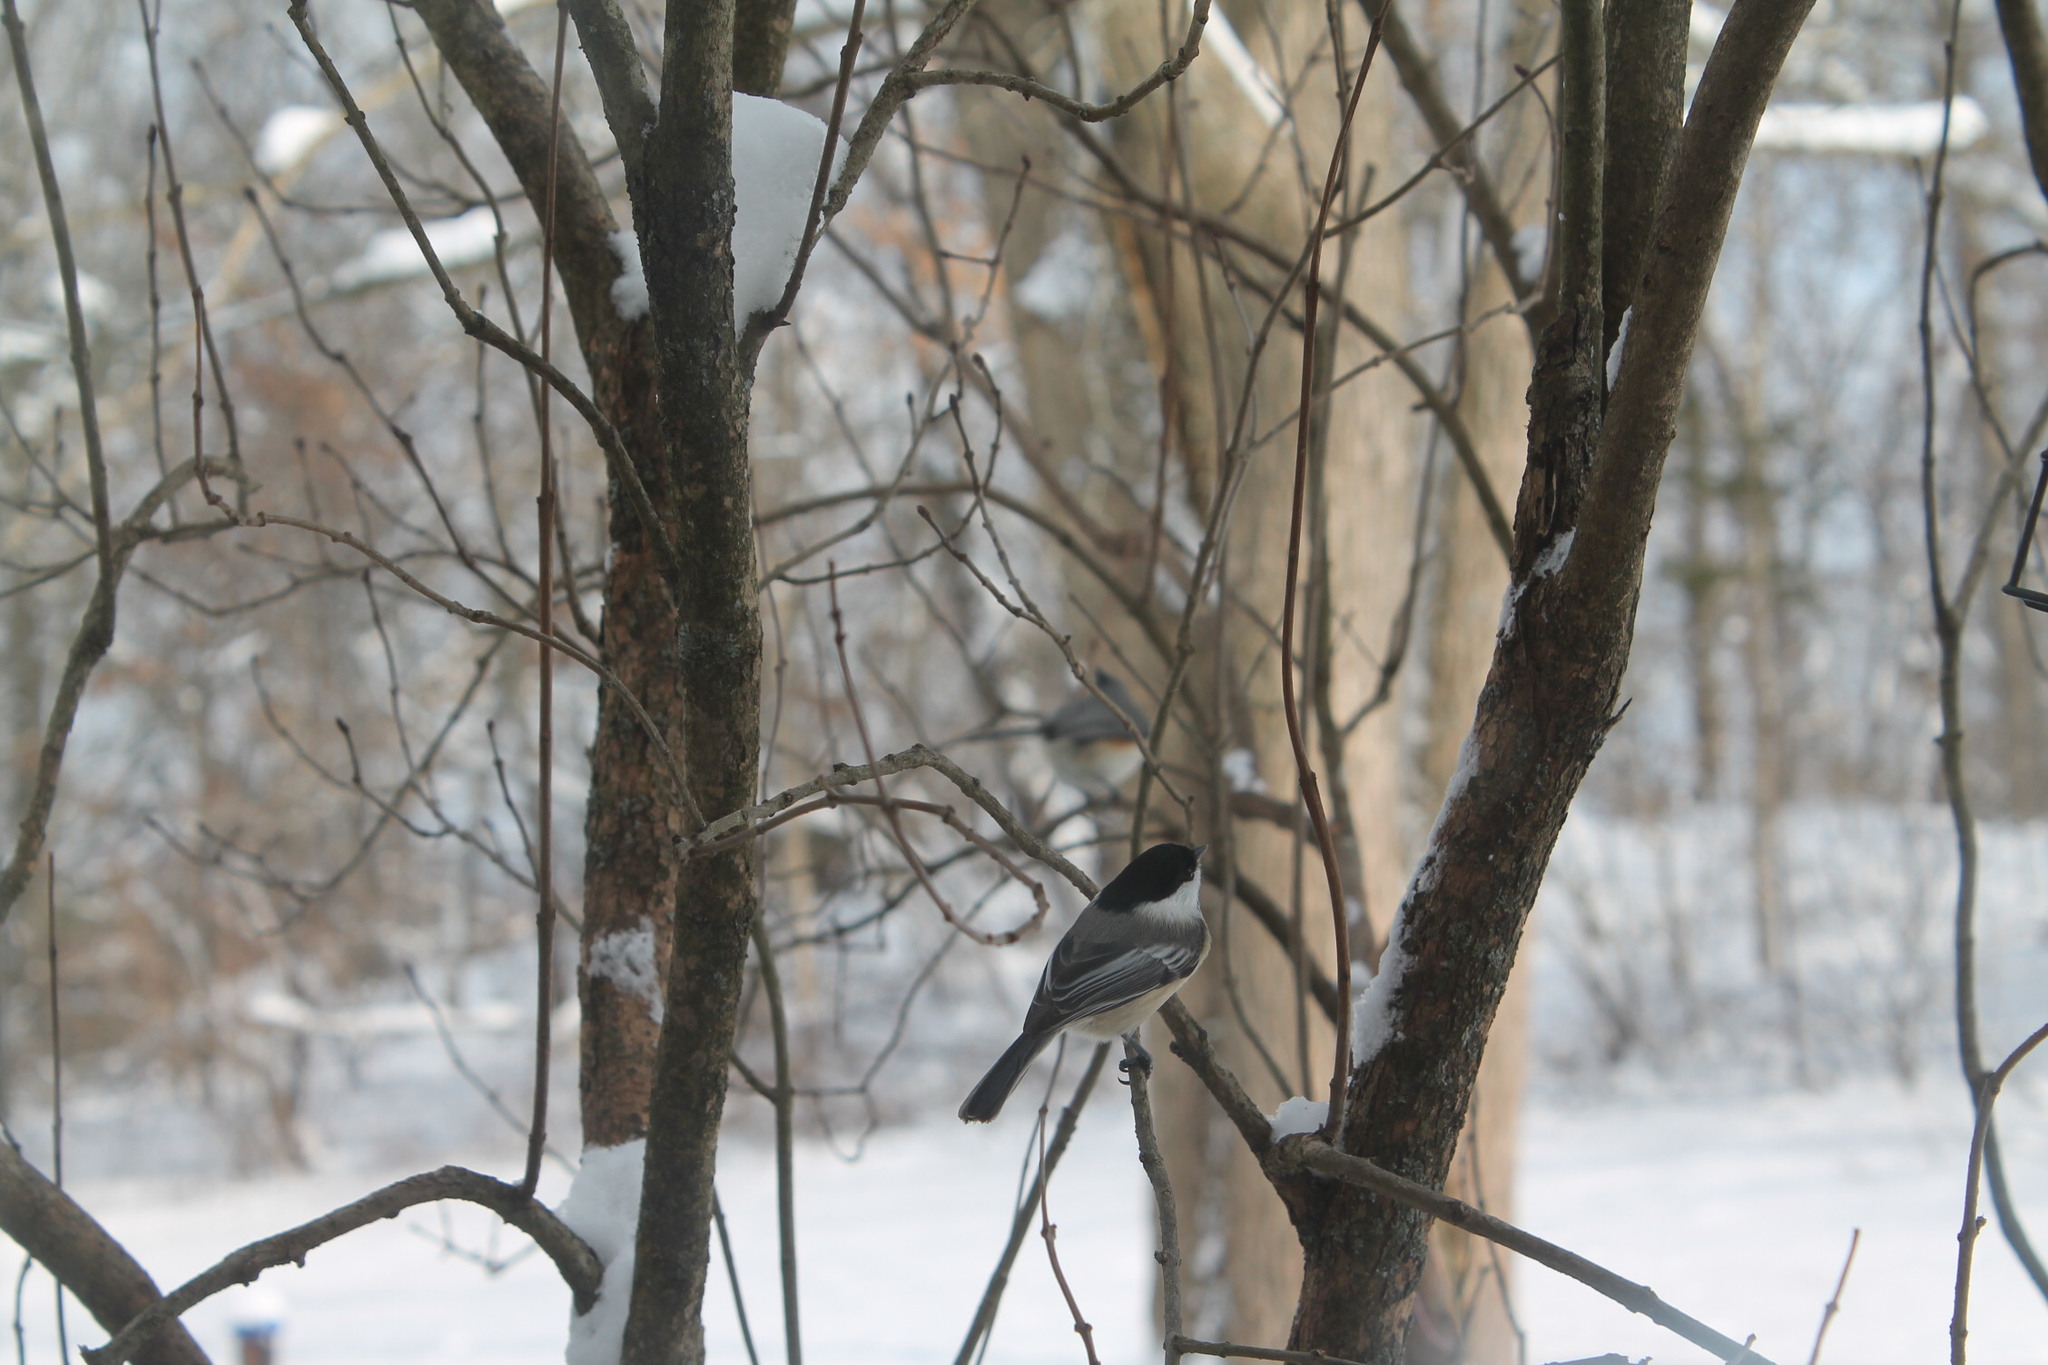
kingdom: Animalia
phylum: Chordata
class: Aves
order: Passeriformes
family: Paridae
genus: Poecile
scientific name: Poecile atricapillus
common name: Black-capped chickadee
